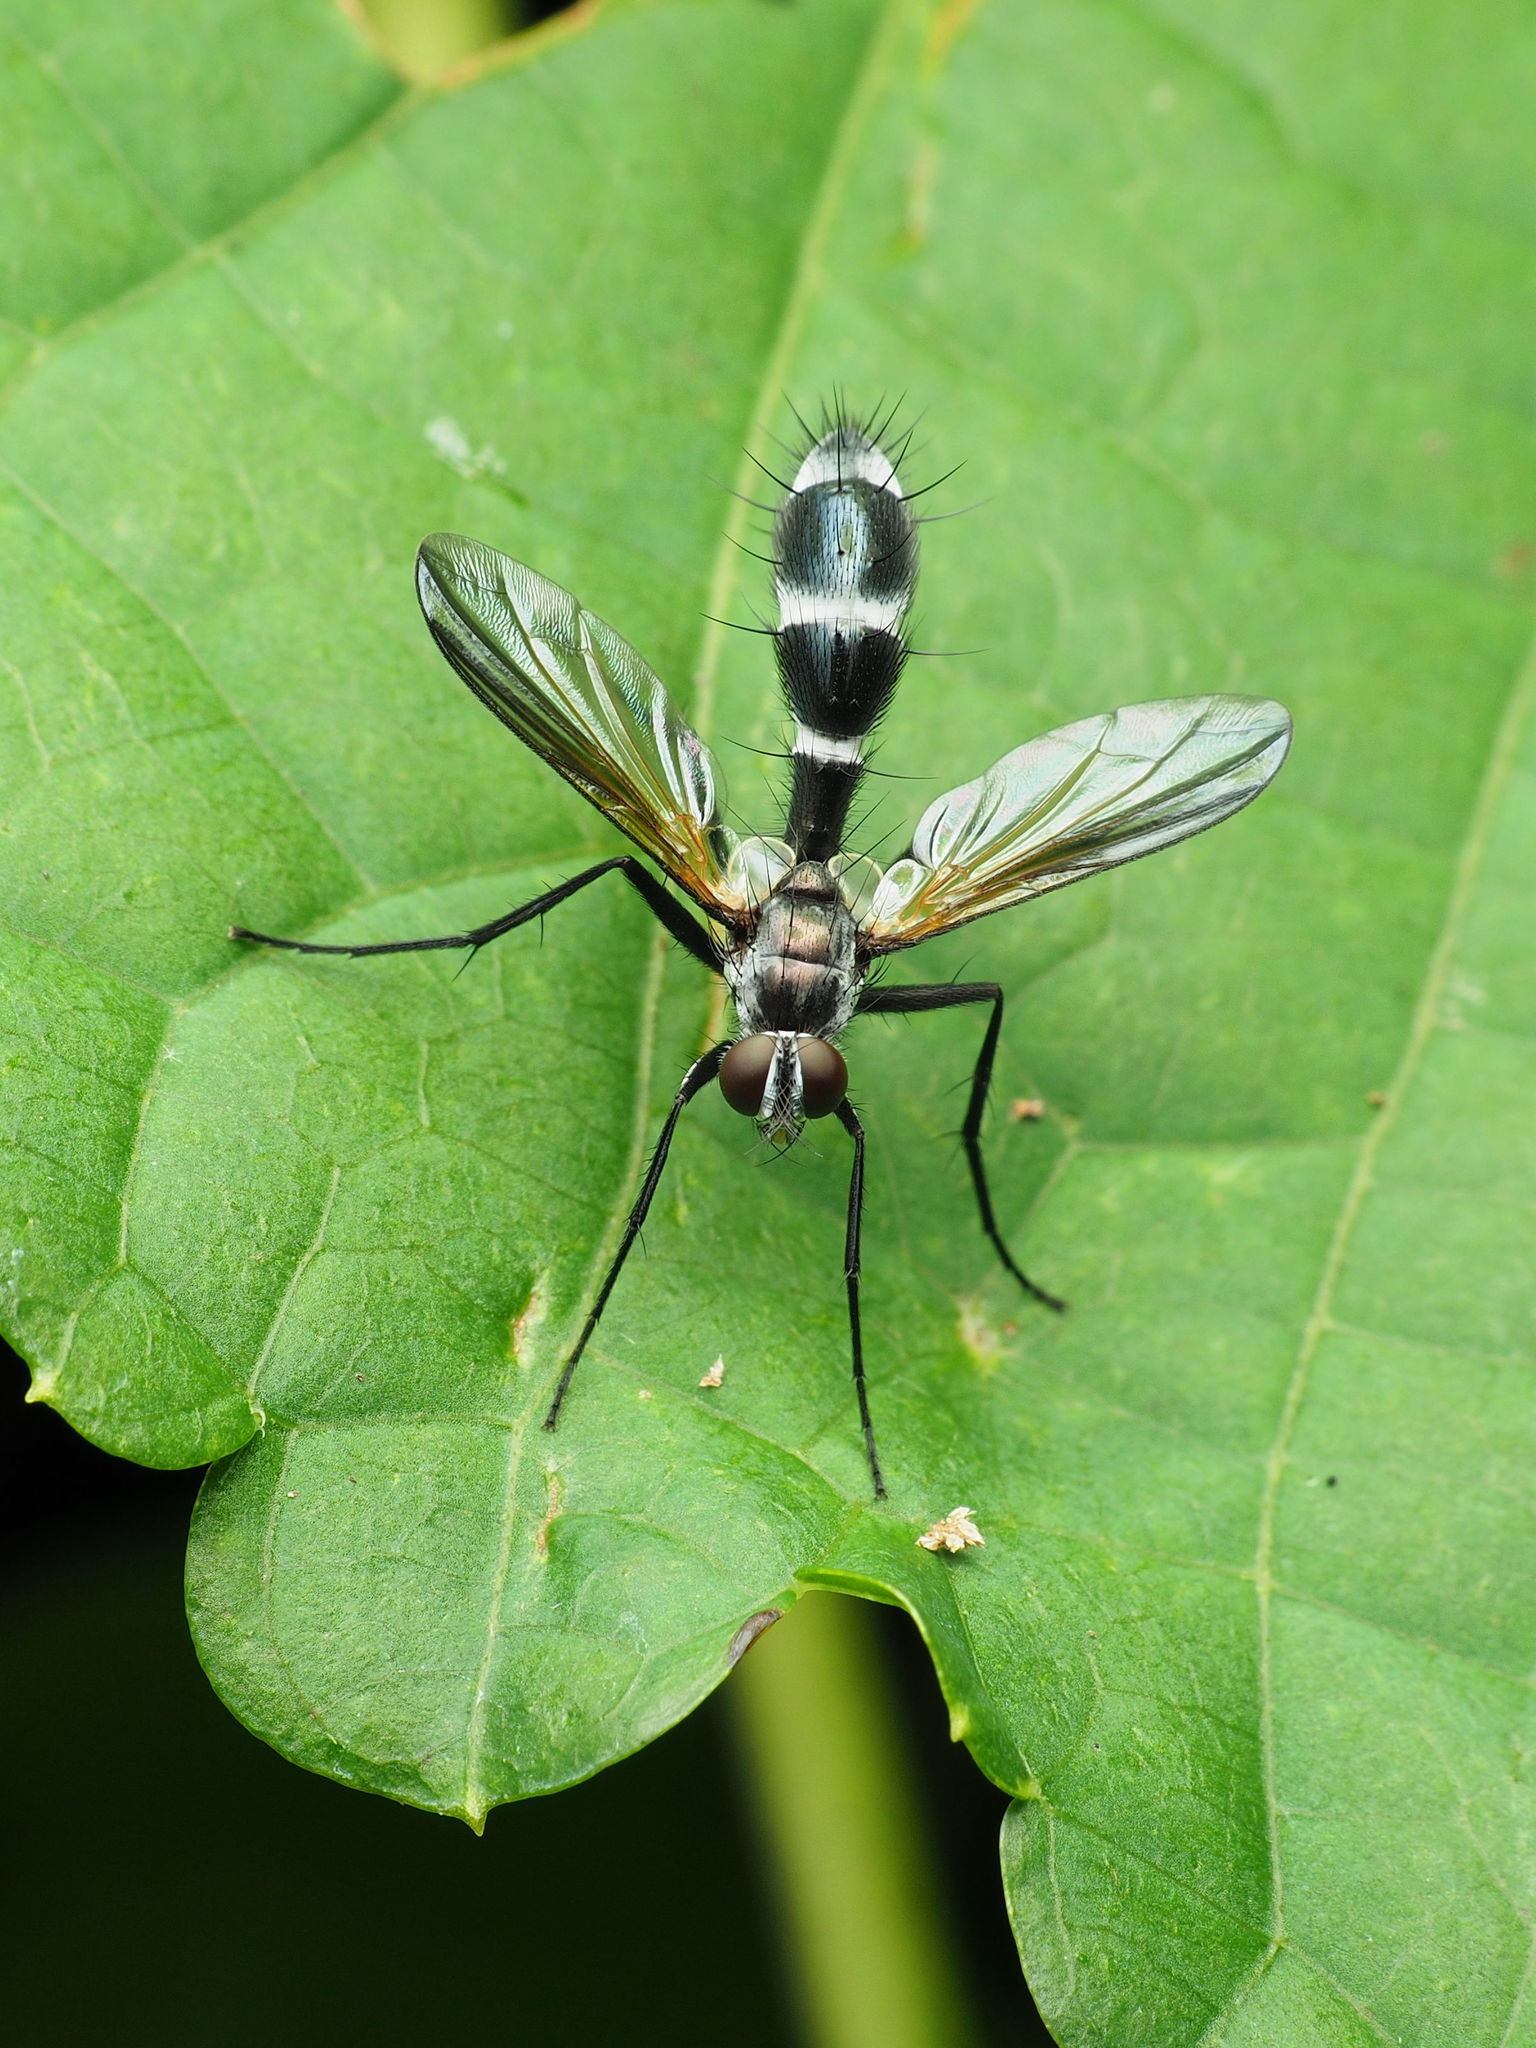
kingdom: Animalia
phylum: Arthropoda
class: Insecta
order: Diptera
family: Tachinidae
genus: Cordyligaster
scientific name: Cordyligaster septentrionalis
